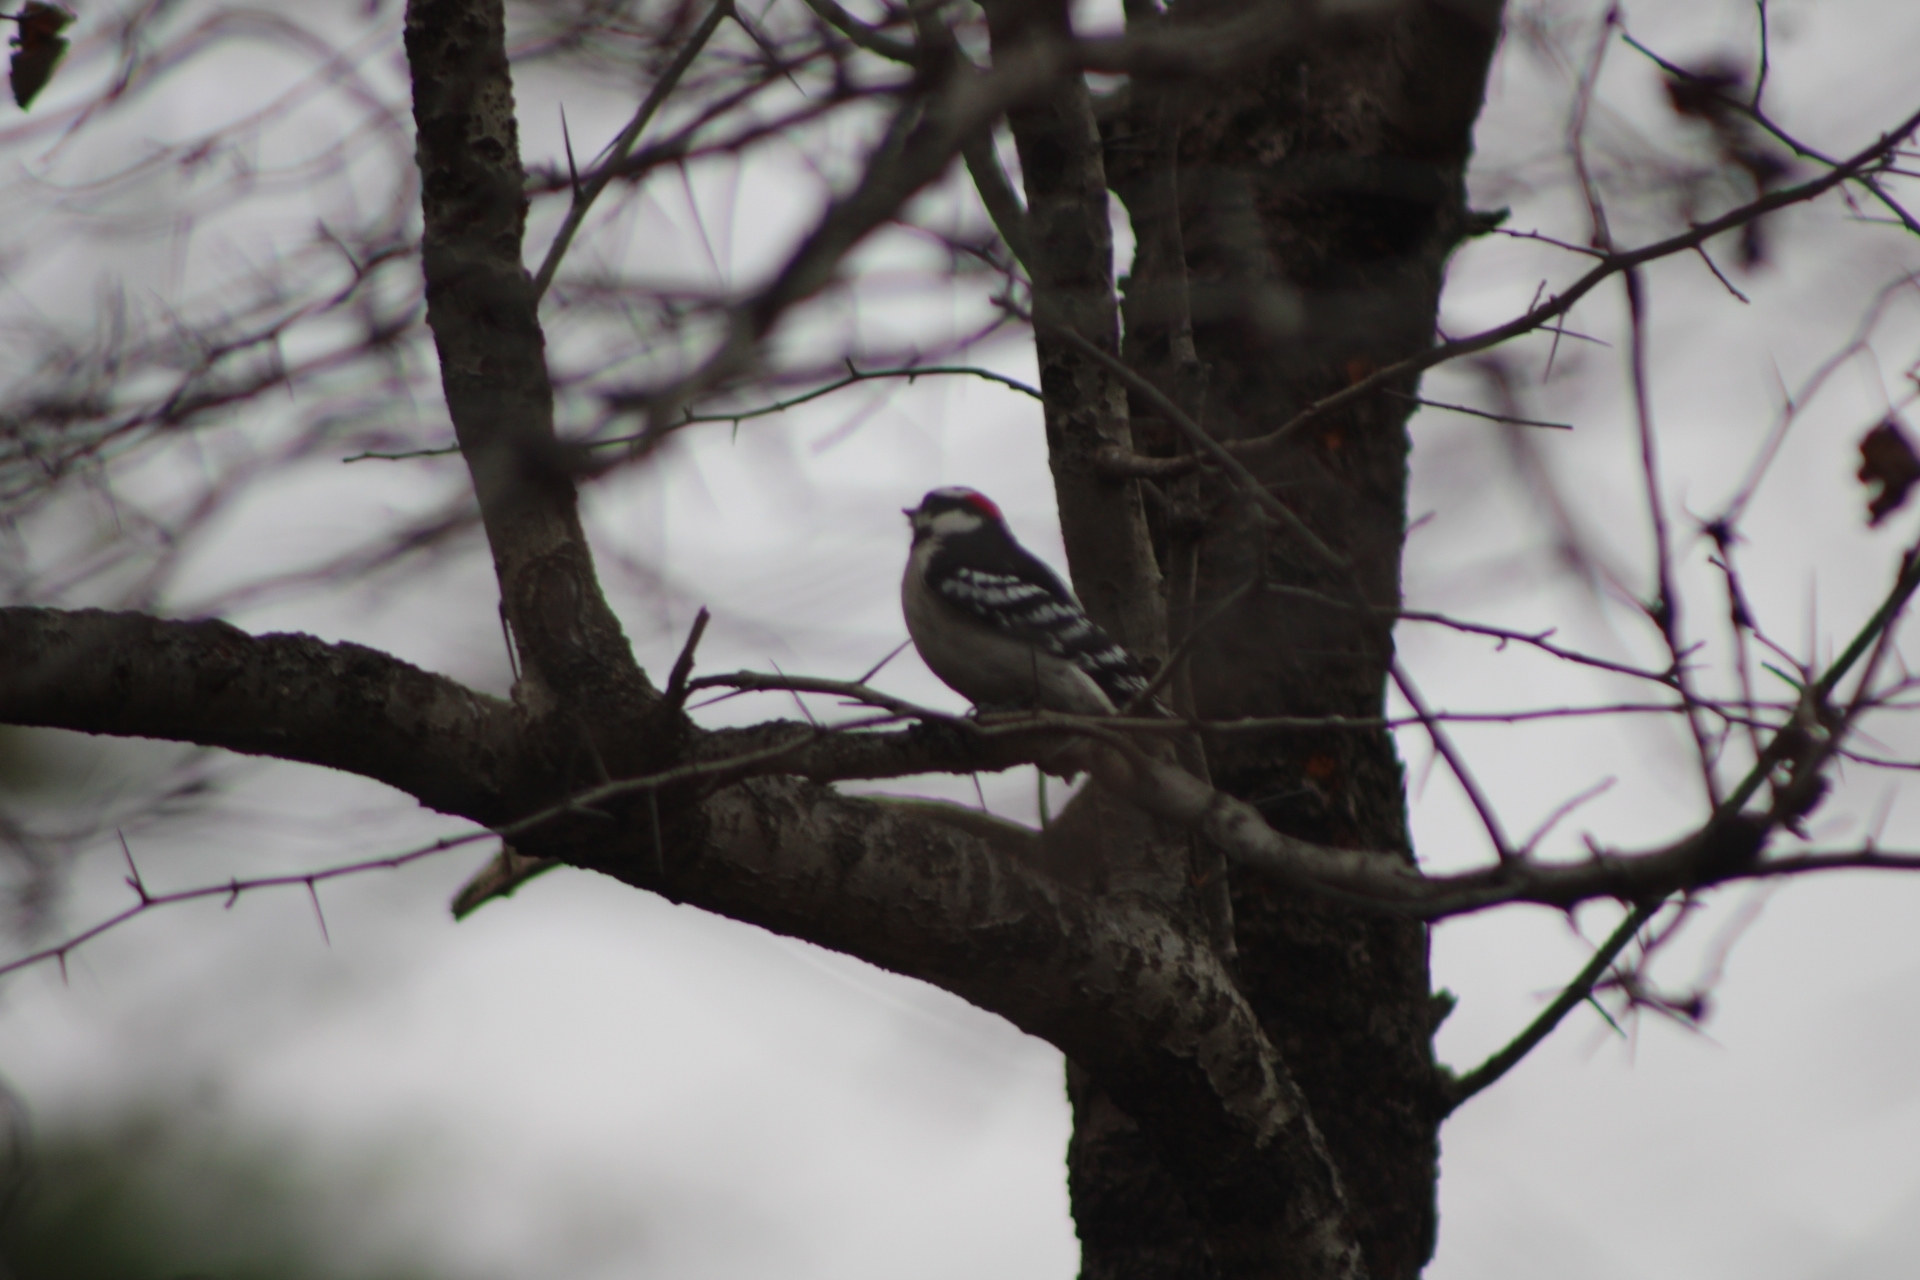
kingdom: Animalia
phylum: Chordata
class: Aves
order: Piciformes
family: Picidae
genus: Dryobates
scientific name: Dryobates pubescens
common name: Downy woodpecker
